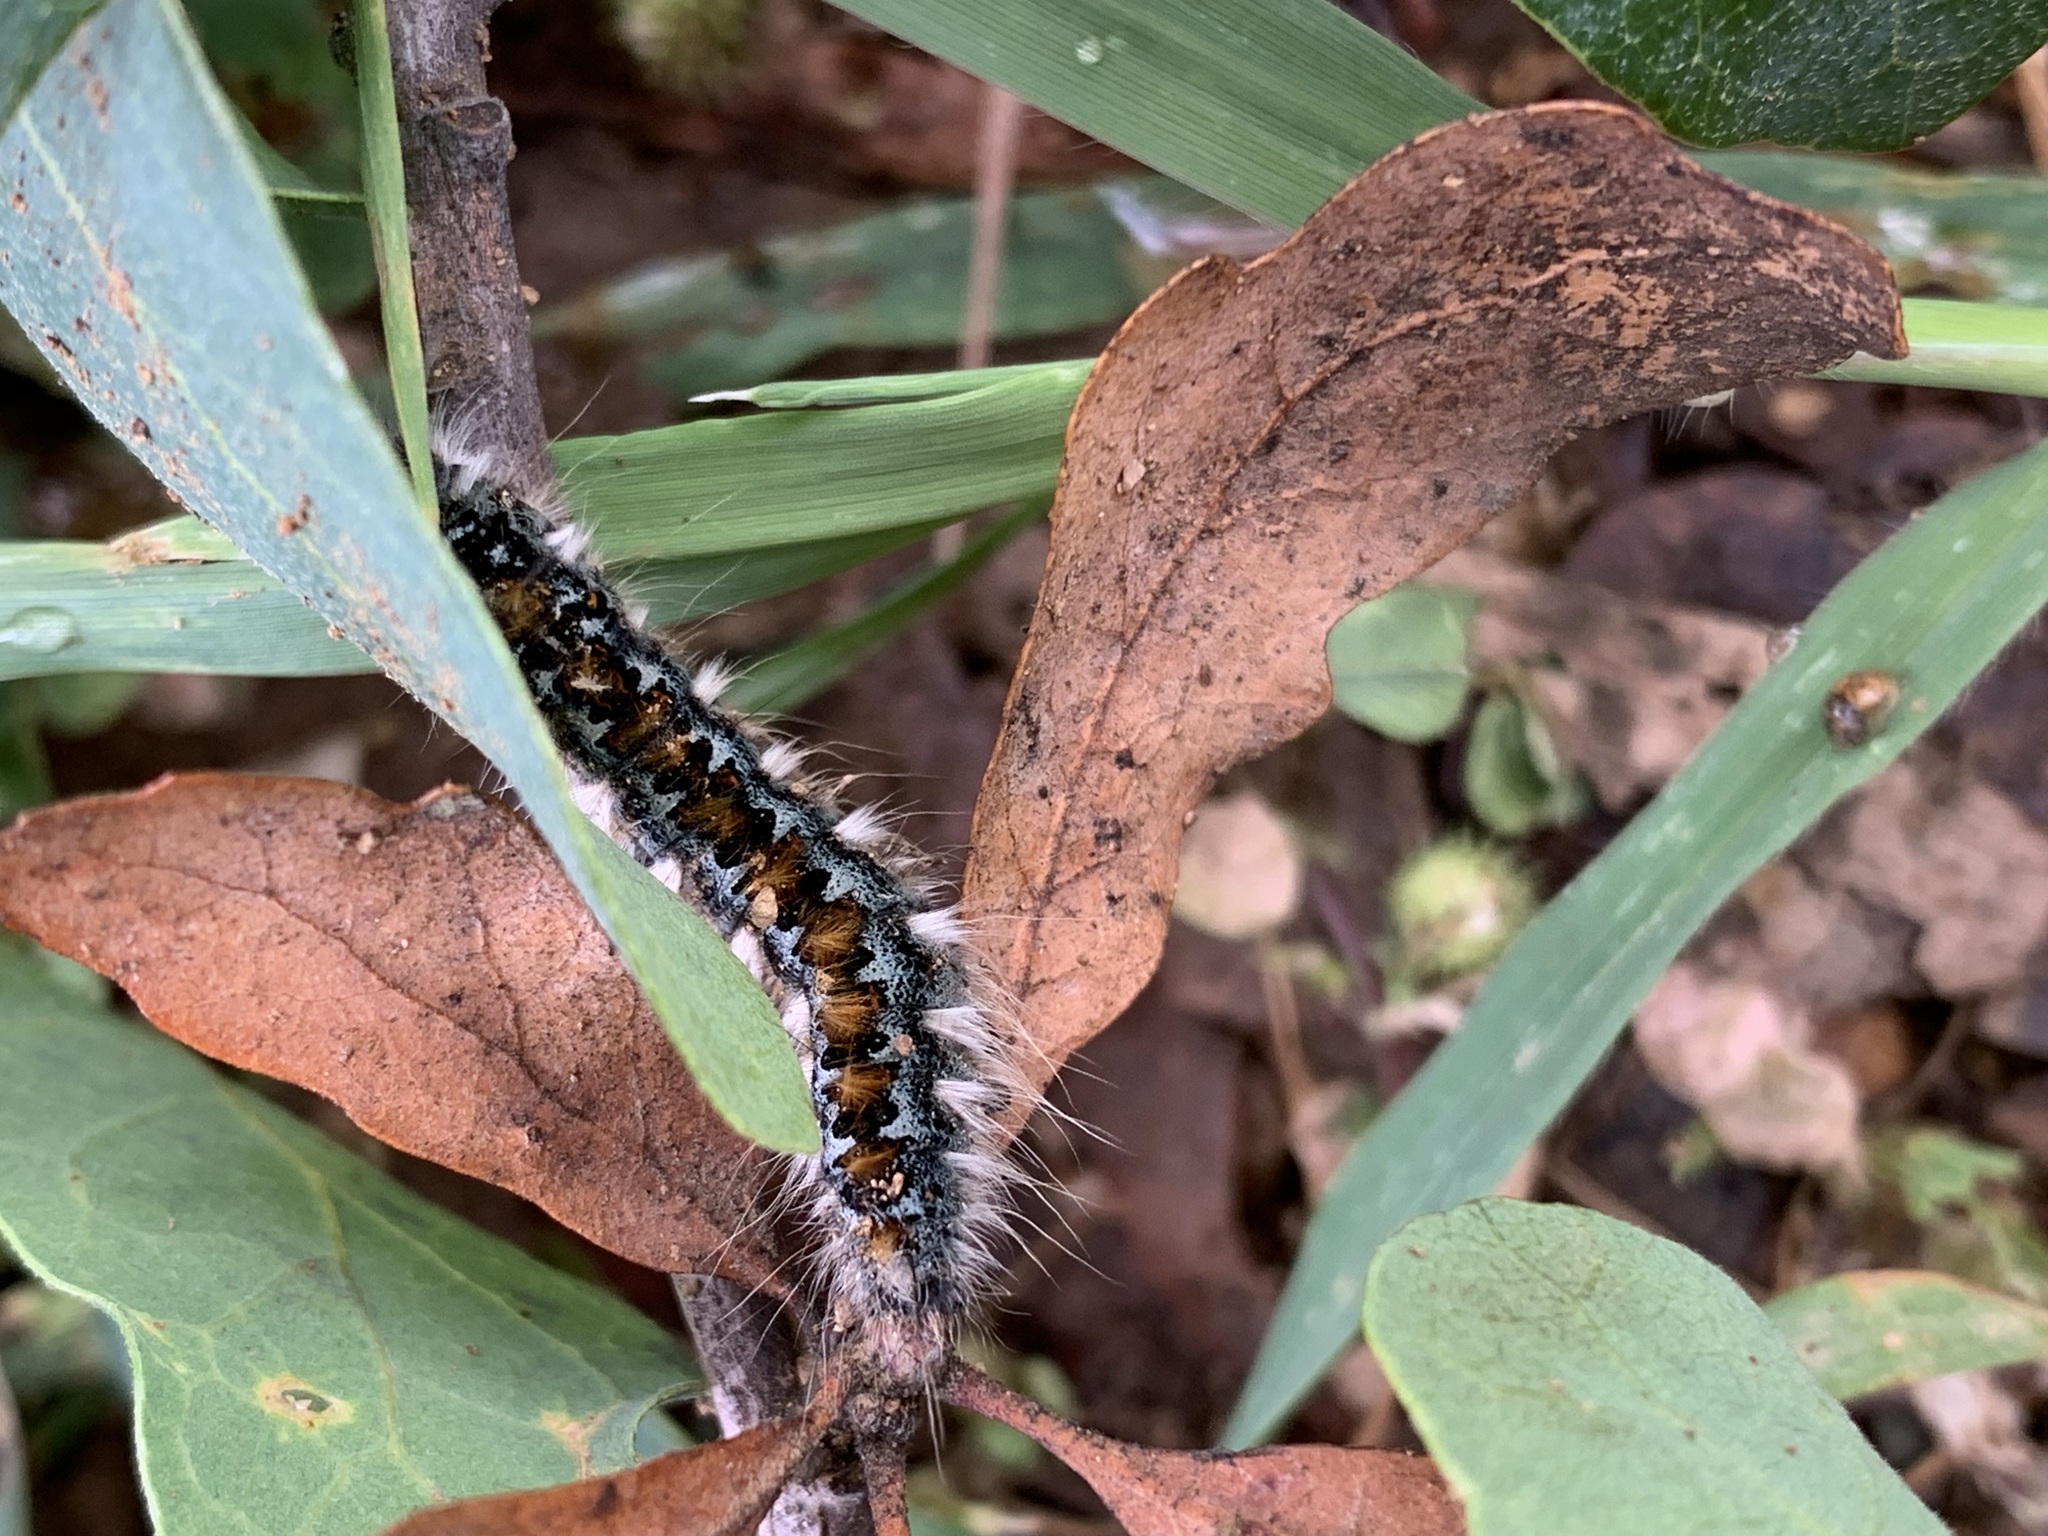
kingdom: Animalia
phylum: Arthropoda
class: Insecta
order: Lepidoptera
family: Lasiocampidae
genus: Malacosoma
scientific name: Malacosoma constricta
